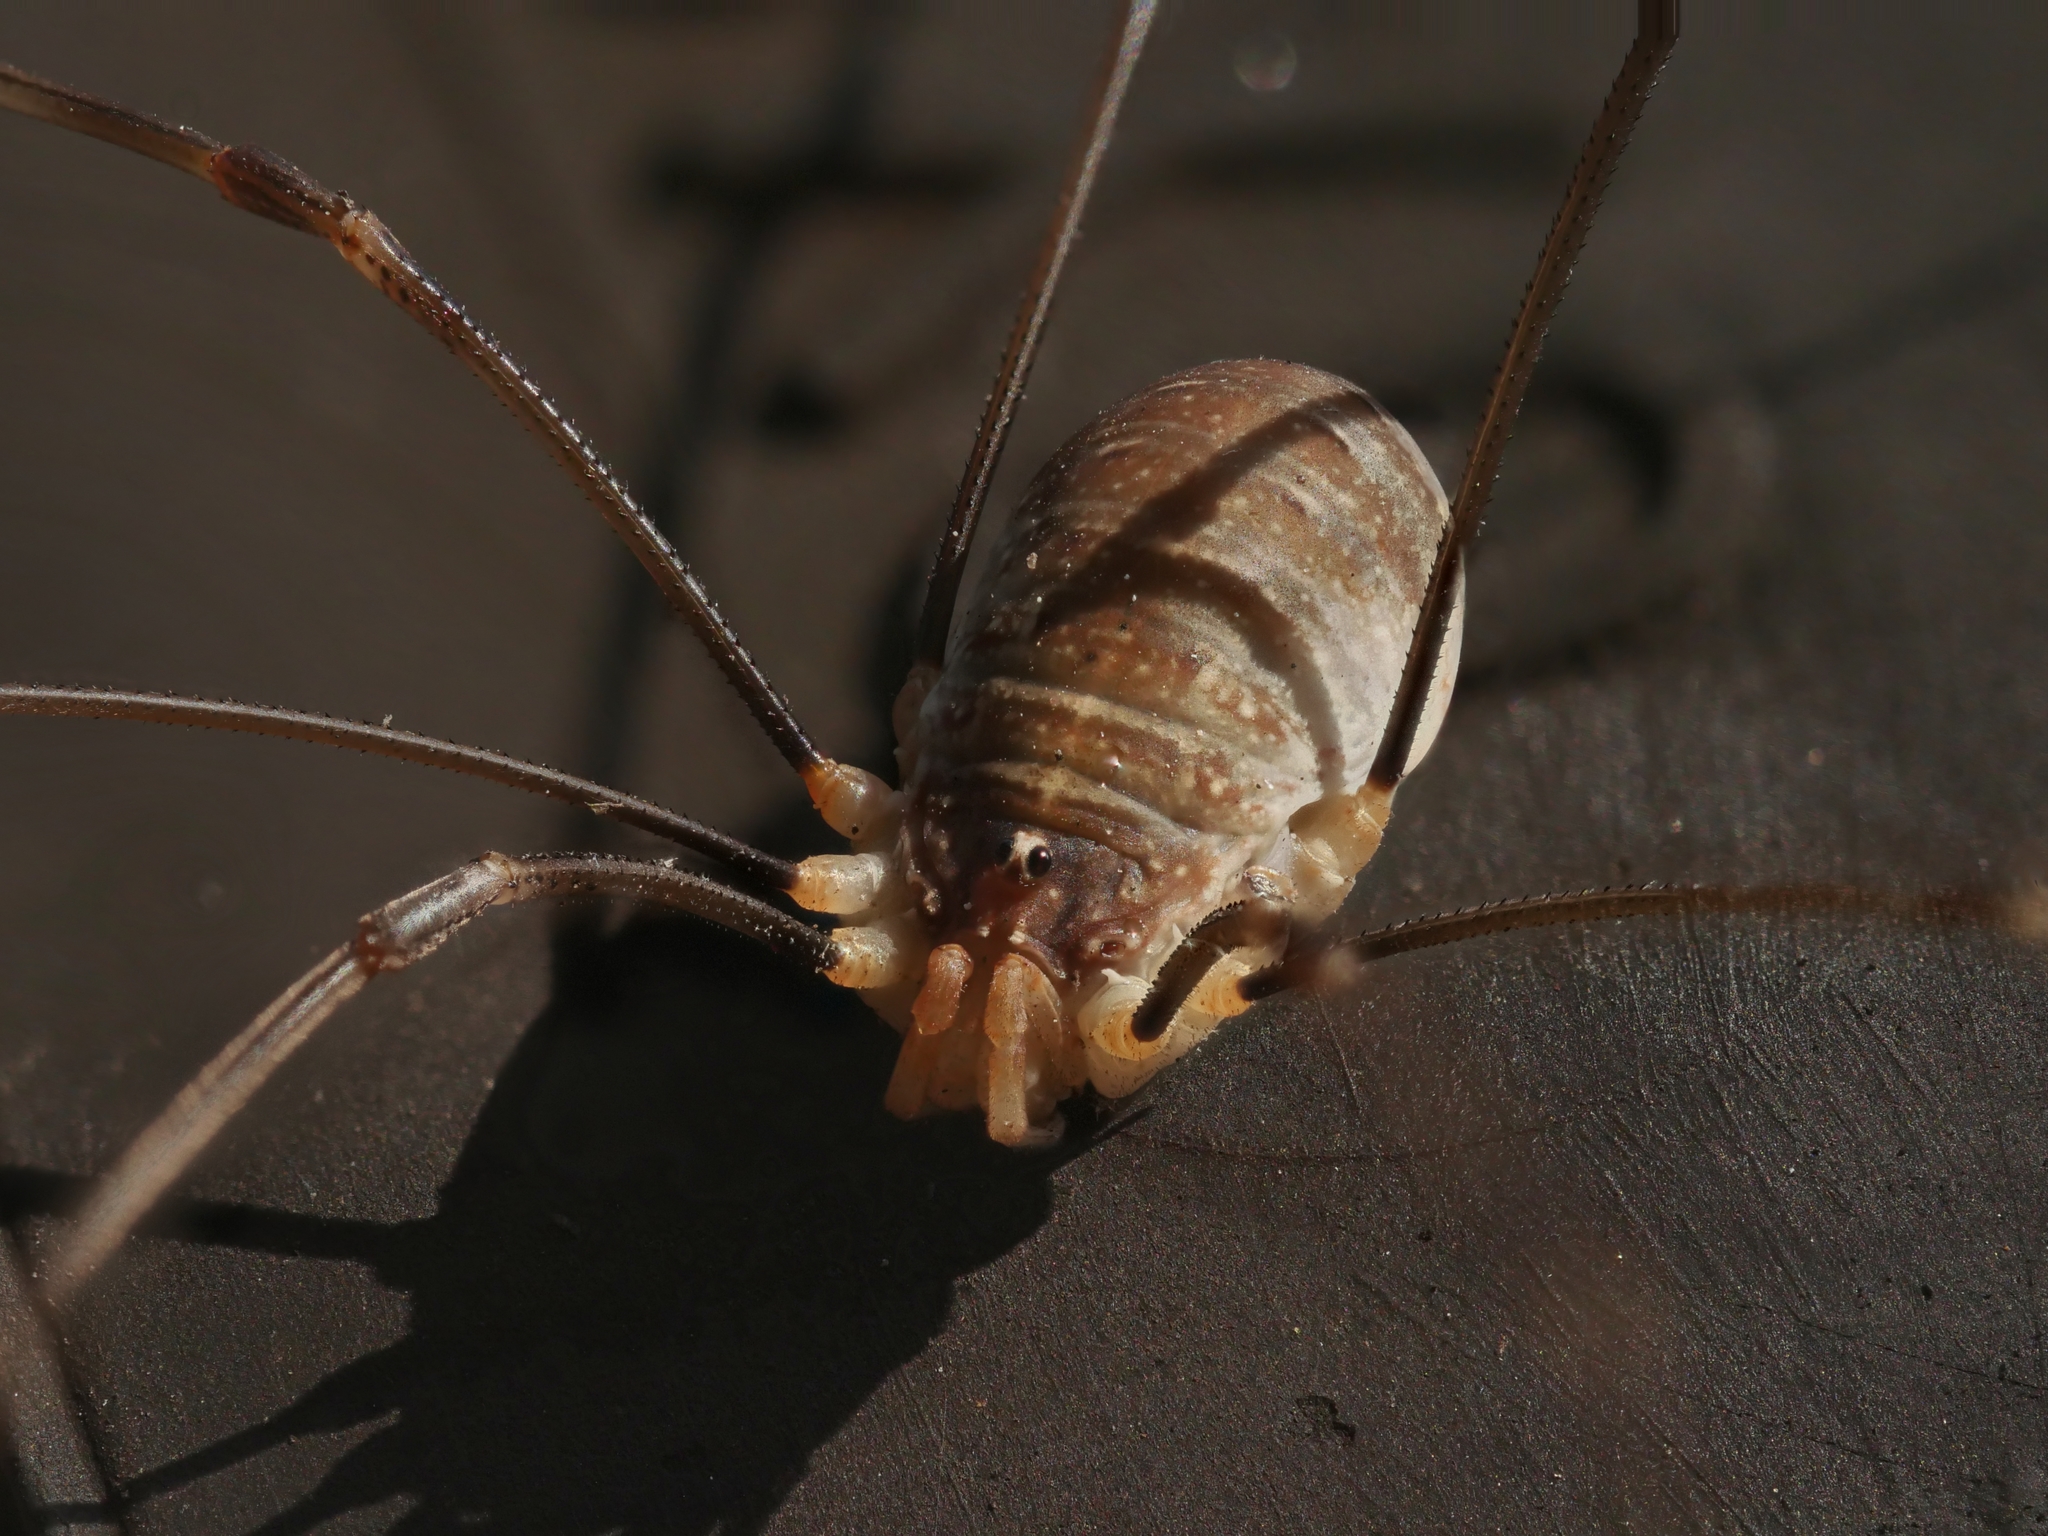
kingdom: Animalia
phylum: Arthropoda
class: Arachnida
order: Opiliones
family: Phalangiidae
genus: Opilio
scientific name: Opilio canestrinii
